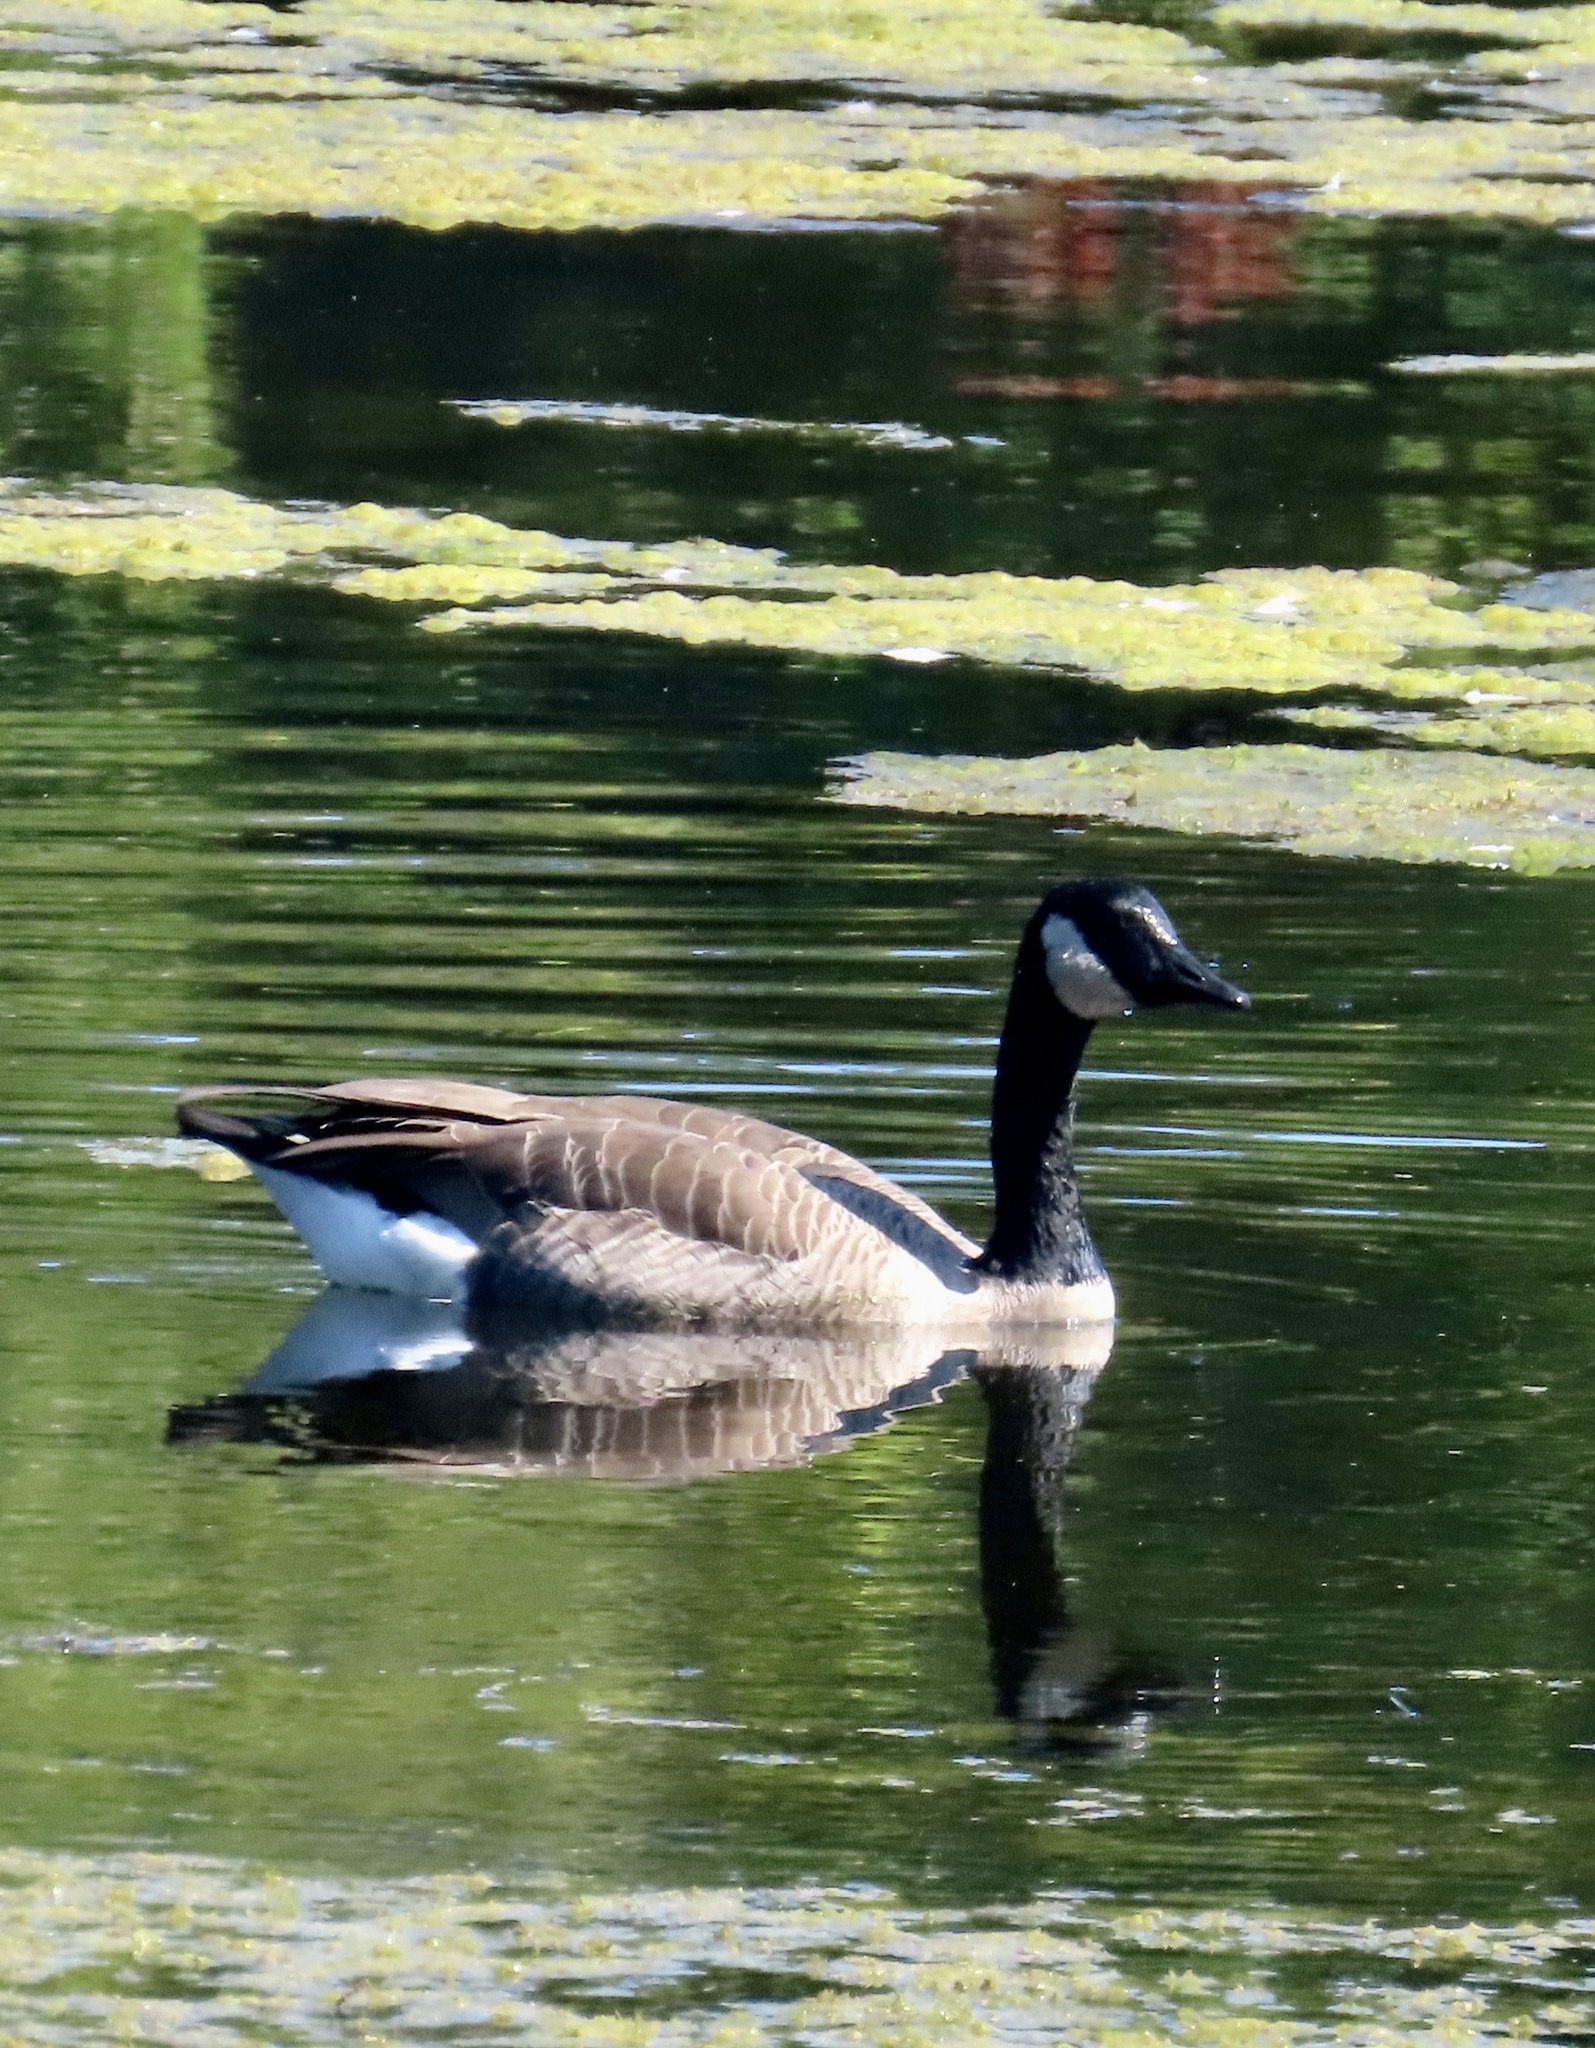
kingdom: Animalia
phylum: Chordata
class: Aves
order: Anseriformes
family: Anatidae
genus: Branta
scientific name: Branta canadensis
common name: Canada goose
